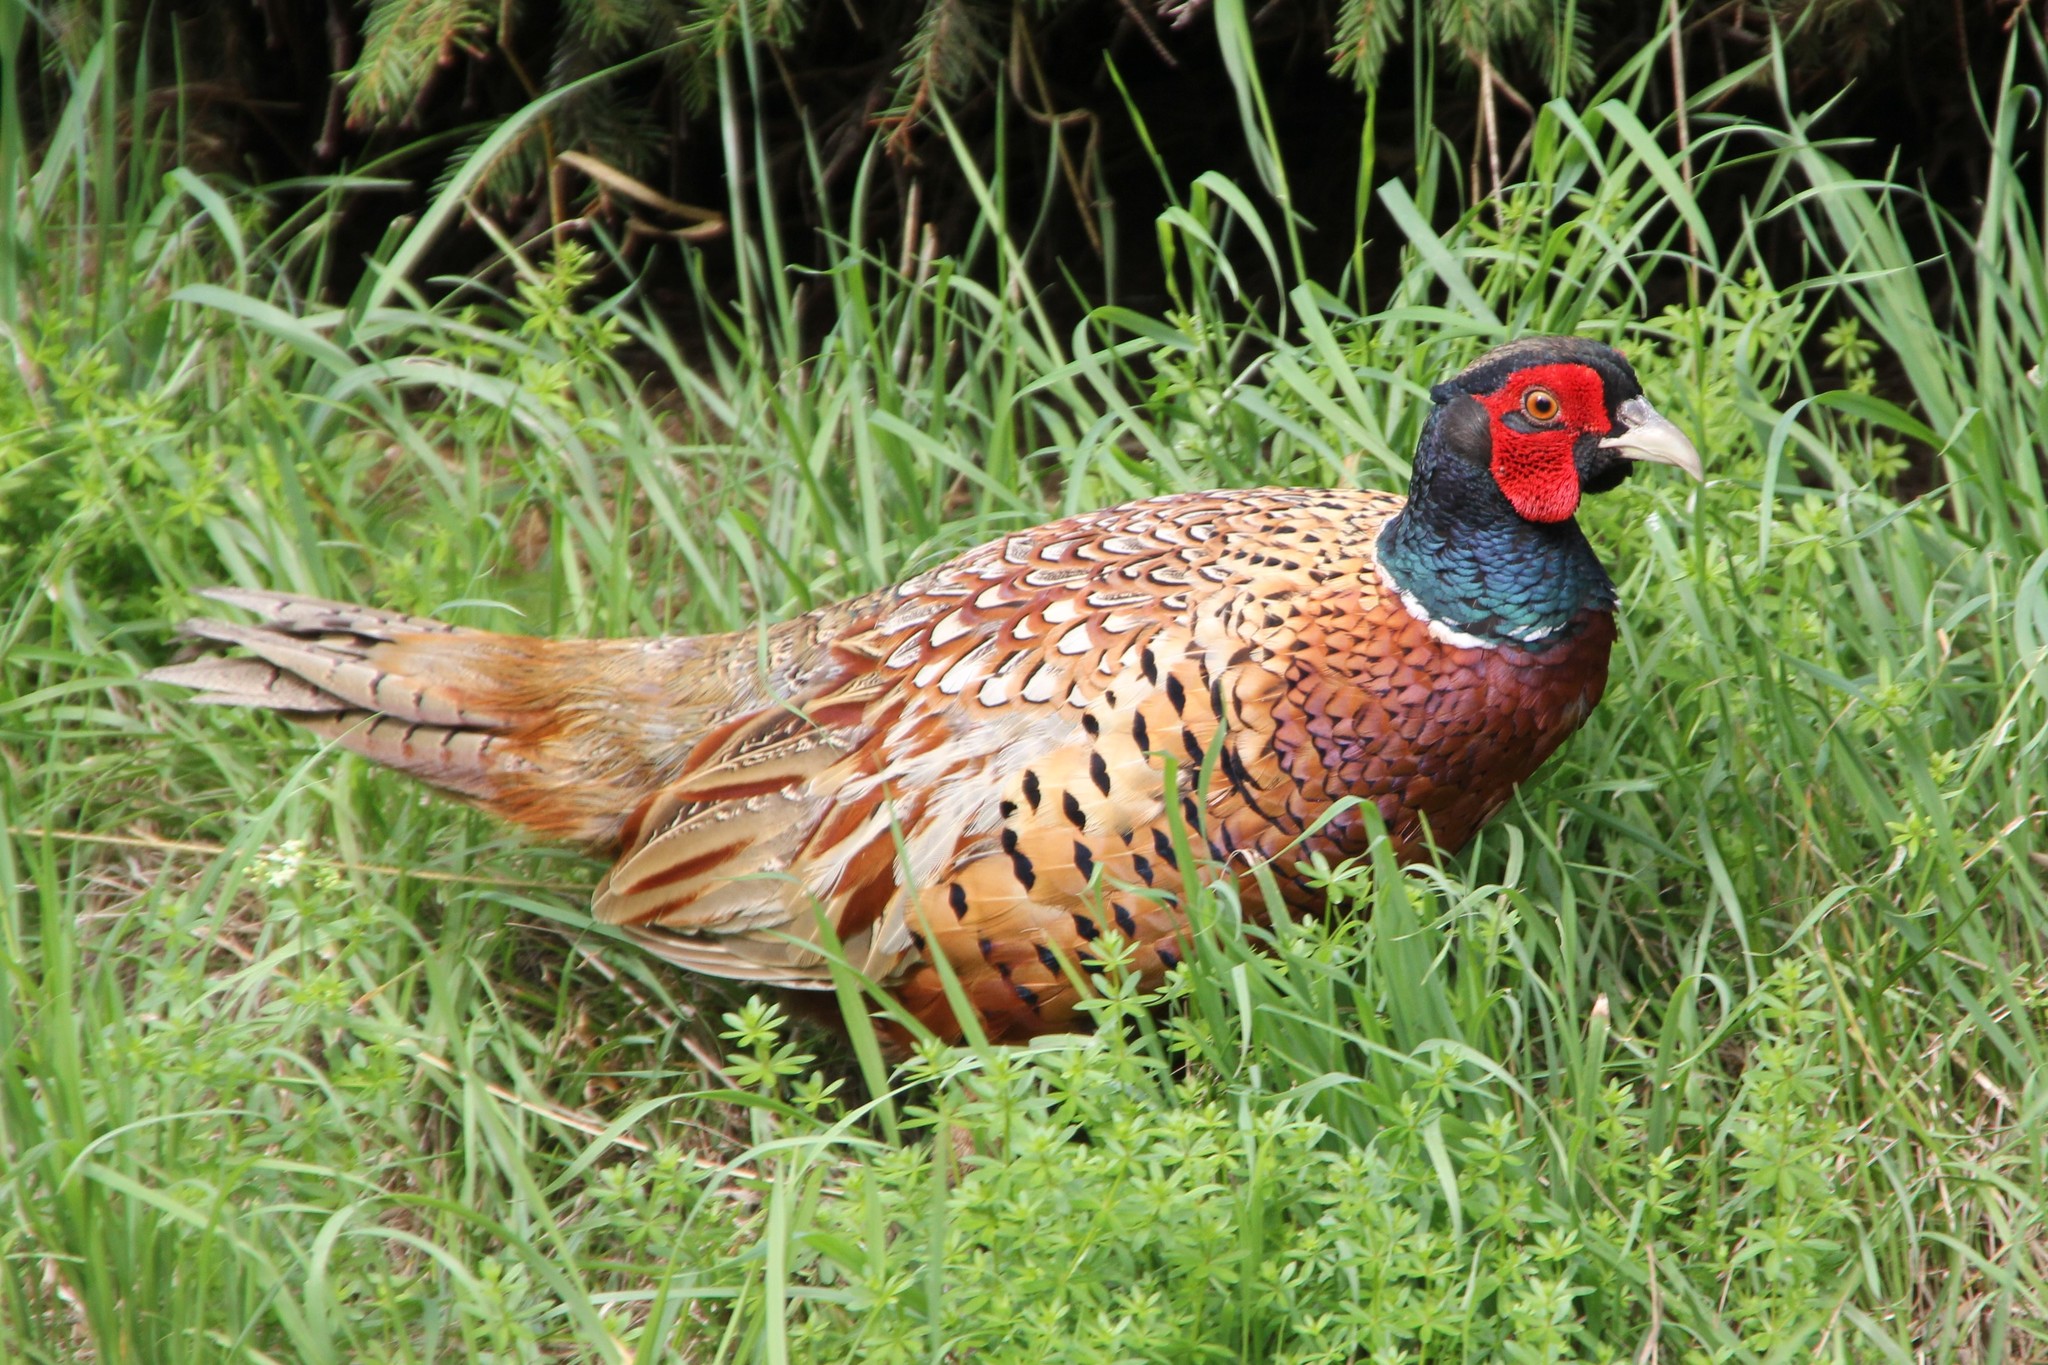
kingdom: Animalia
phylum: Chordata
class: Aves
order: Galliformes
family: Phasianidae
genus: Phasianus
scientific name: Phasianus colchicus
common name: Common pheasant
